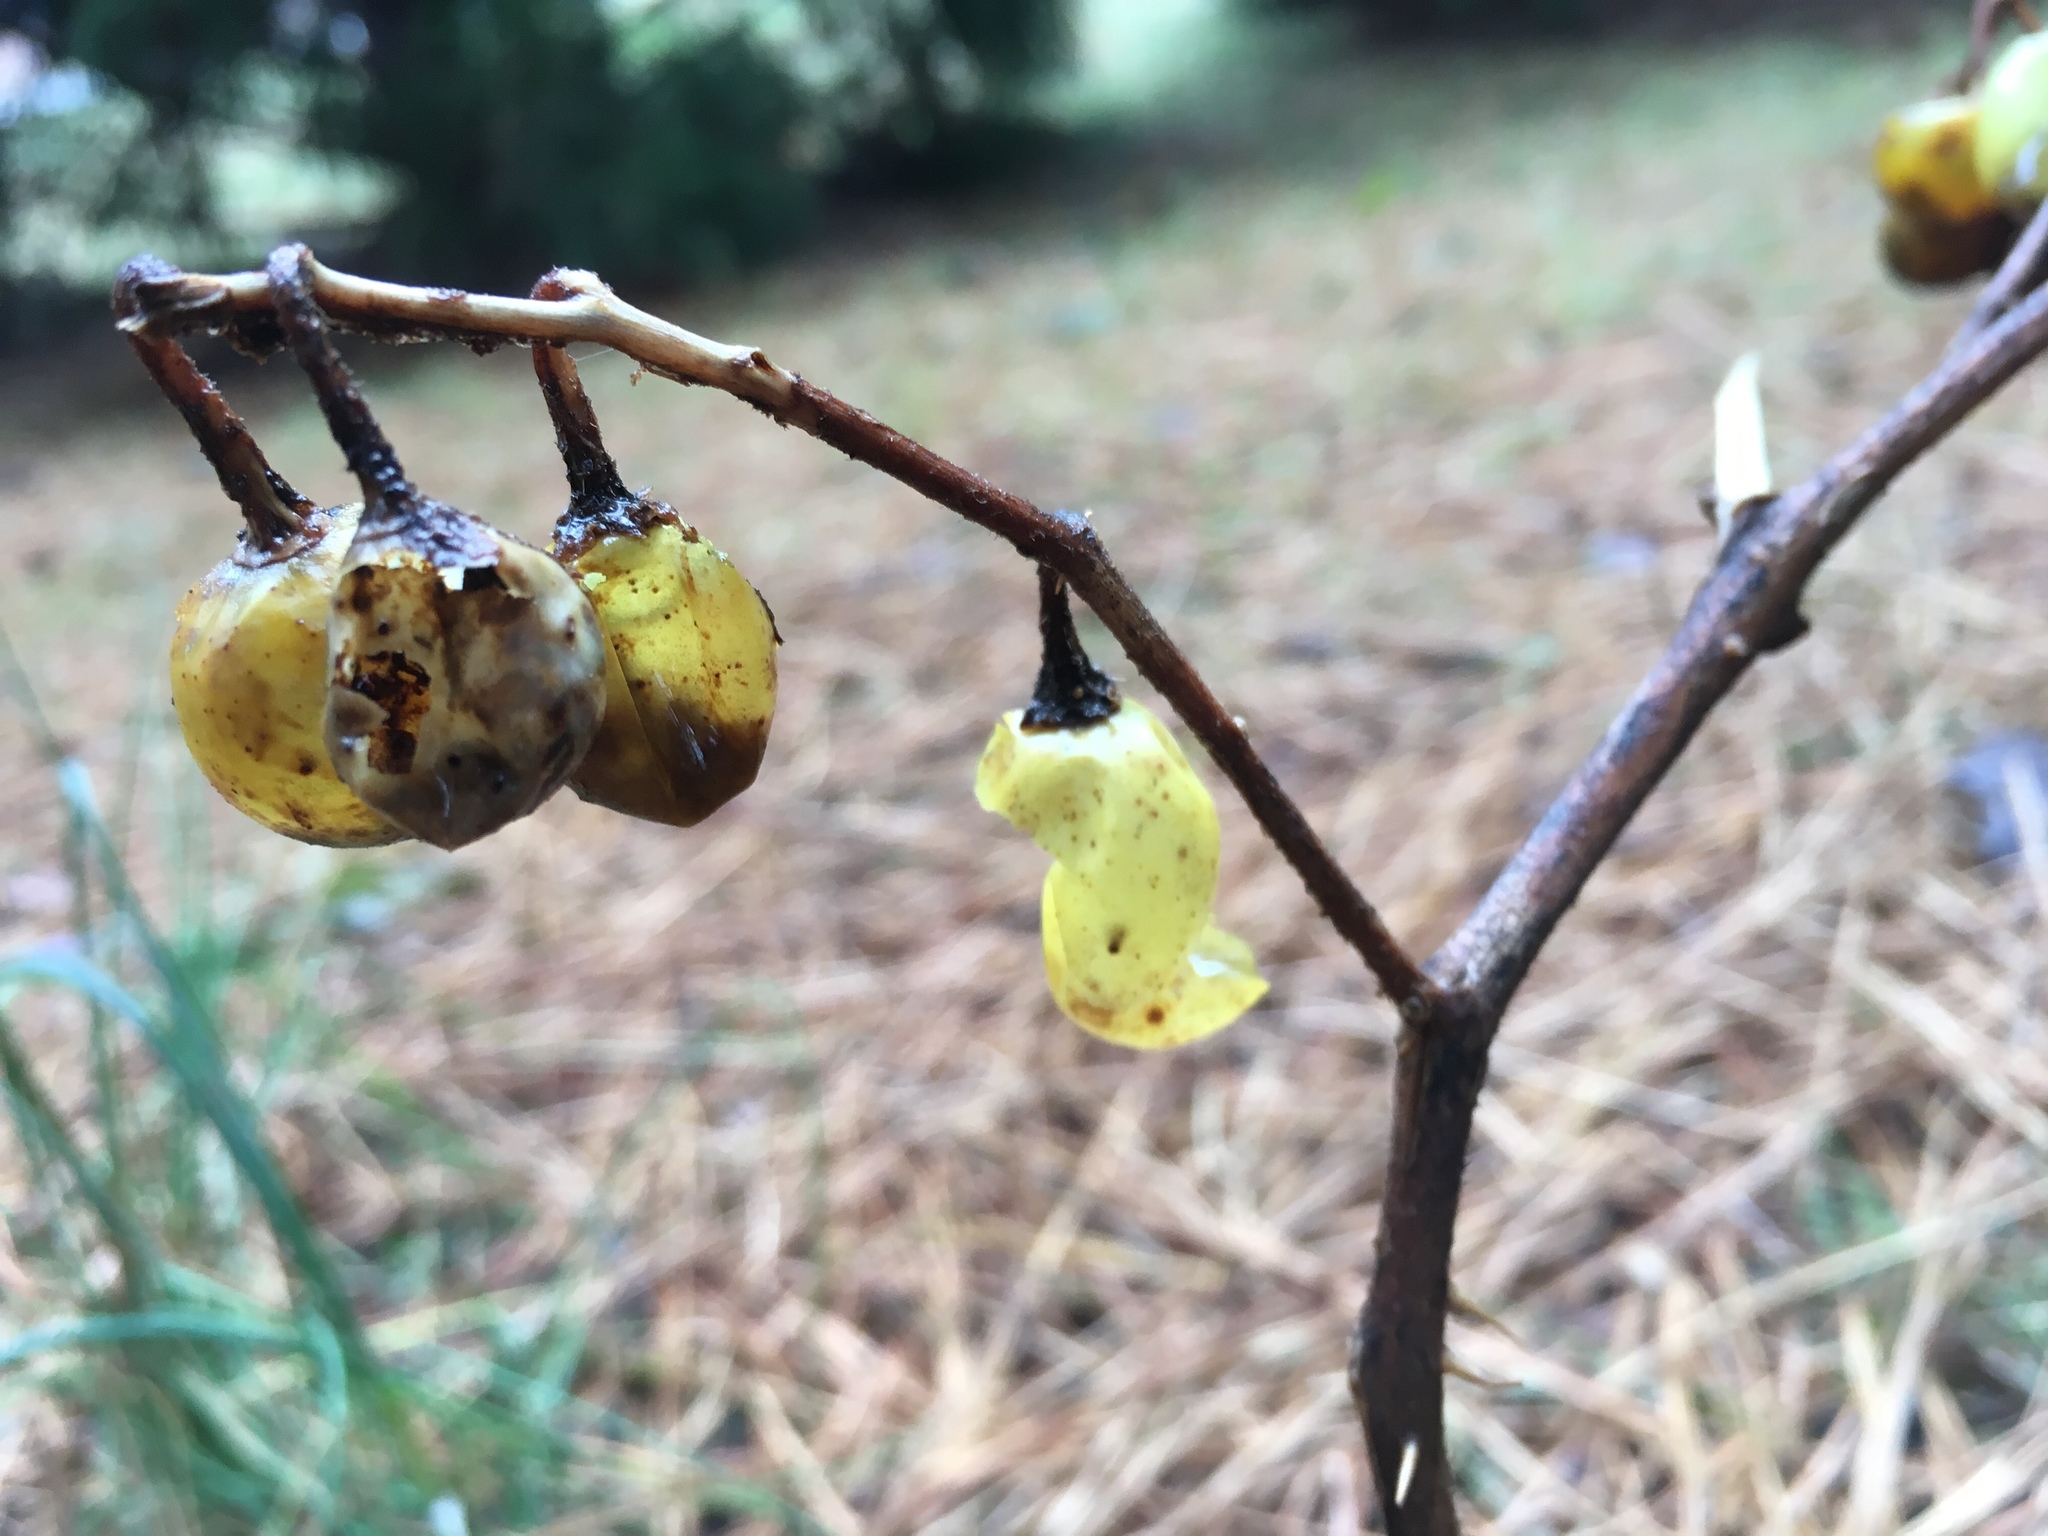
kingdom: Plantae
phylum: Tracheophyta
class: Magnoliopsida
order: Solanales
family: Solanaceae
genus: Solanum
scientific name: Solanum carolinense
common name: Horse-nettle
